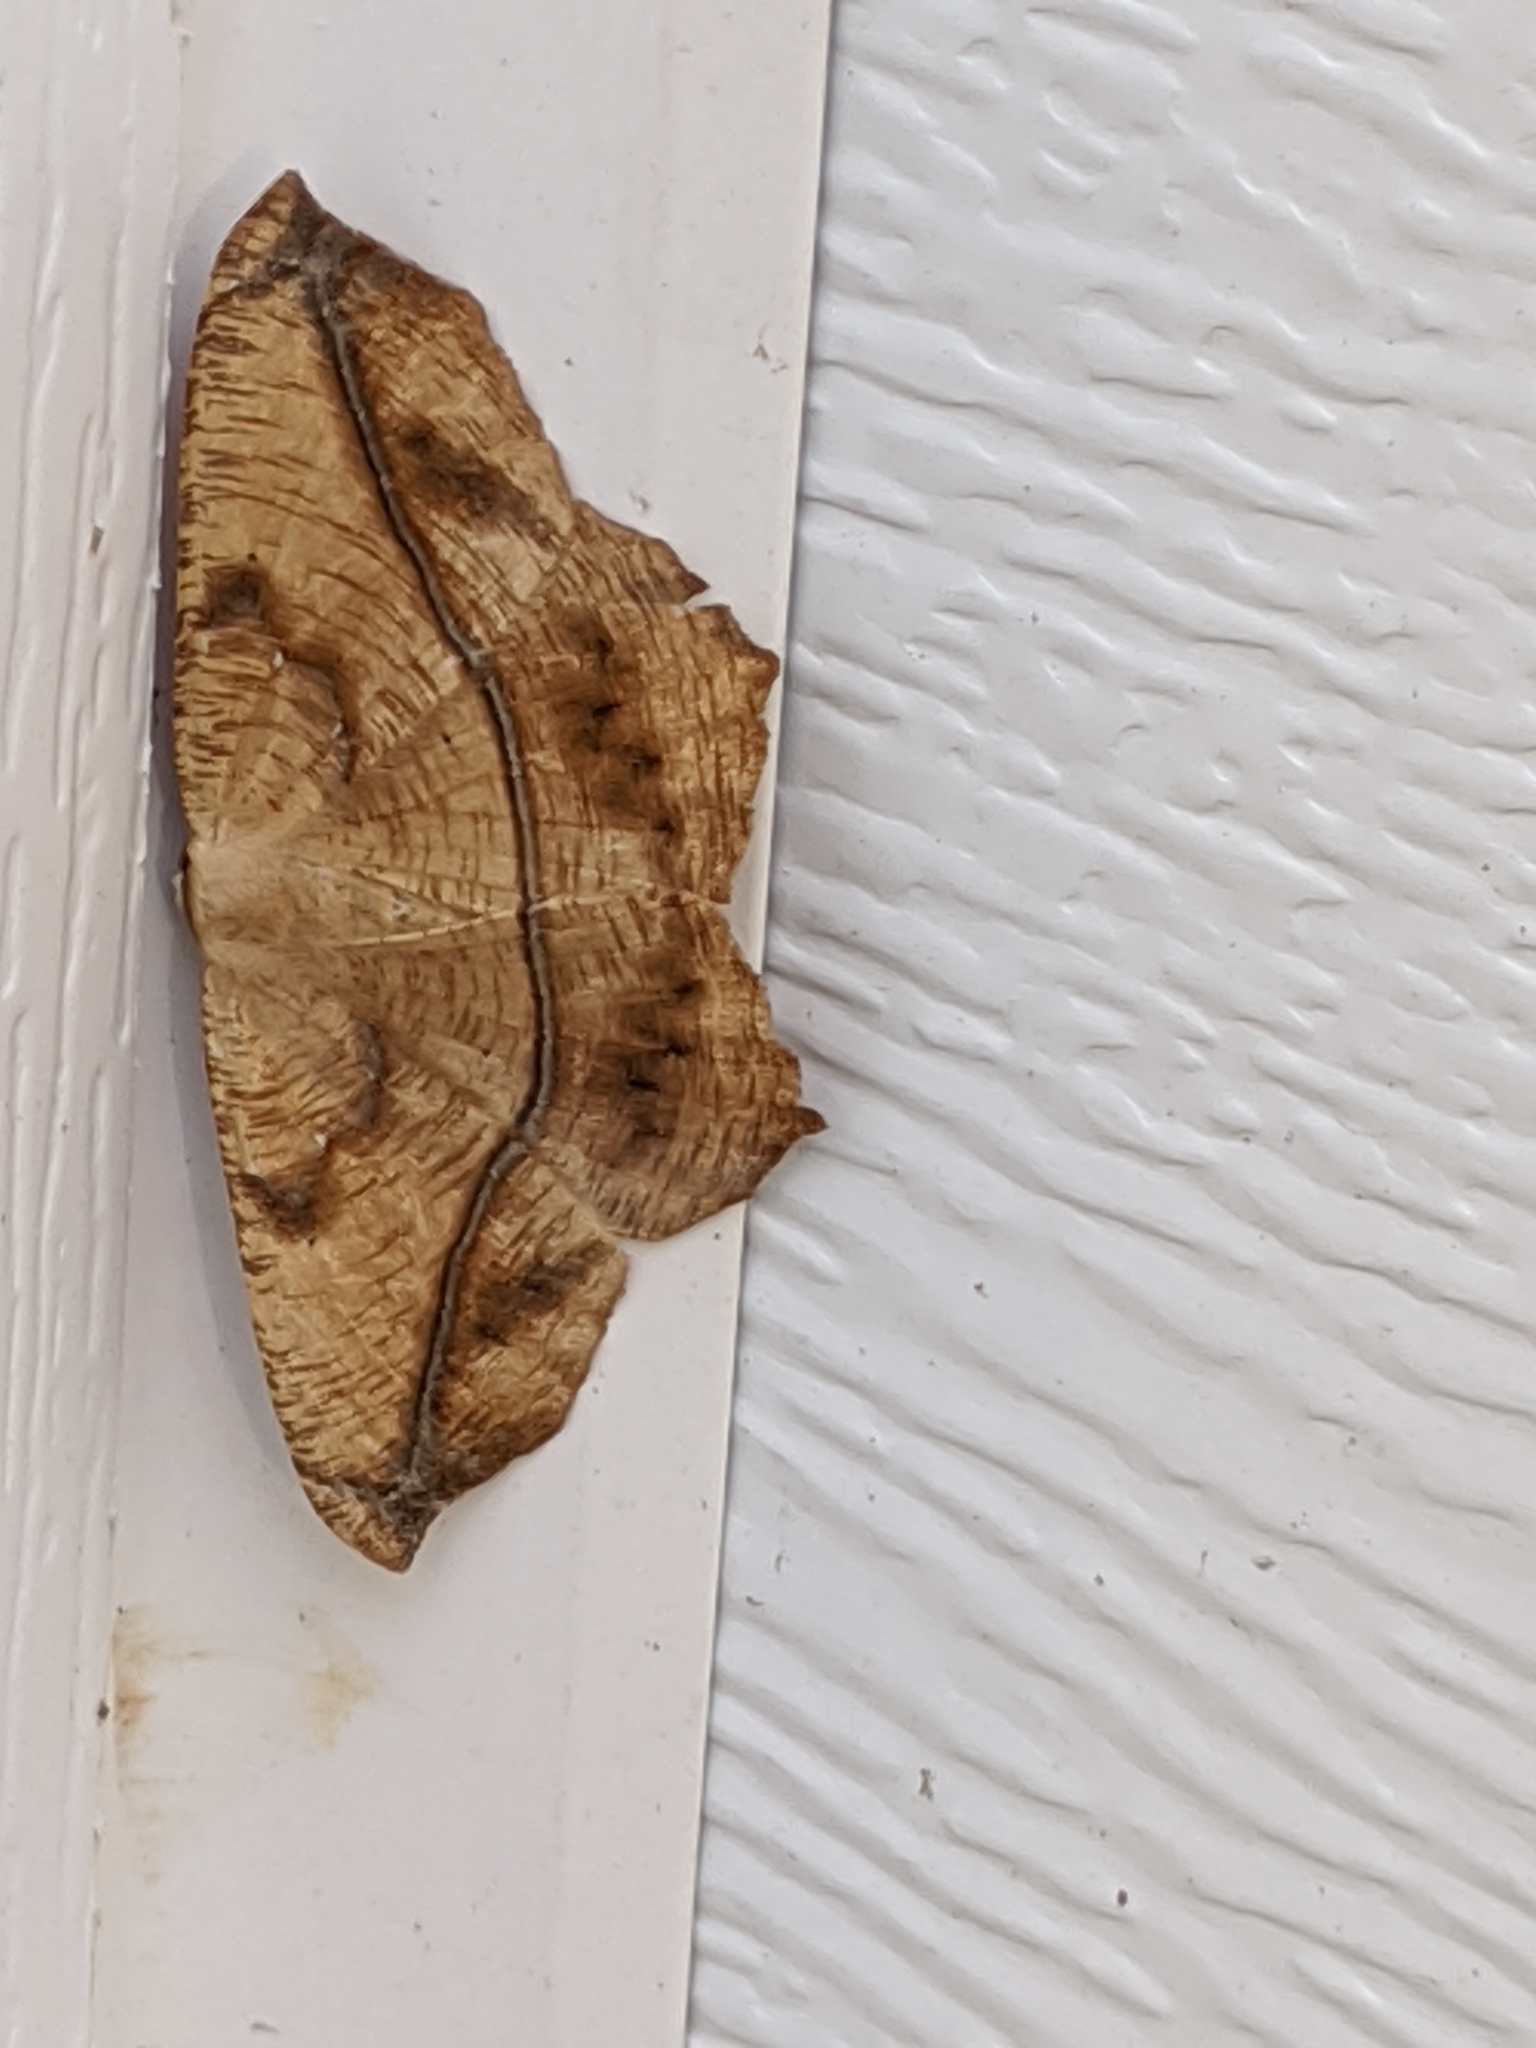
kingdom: Animalia
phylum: Arthropoda
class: Insecta
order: Lepidoptera
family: Geometridae
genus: Prochoerodes
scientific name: Prochoerodes lineola
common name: Large maple spanworm
